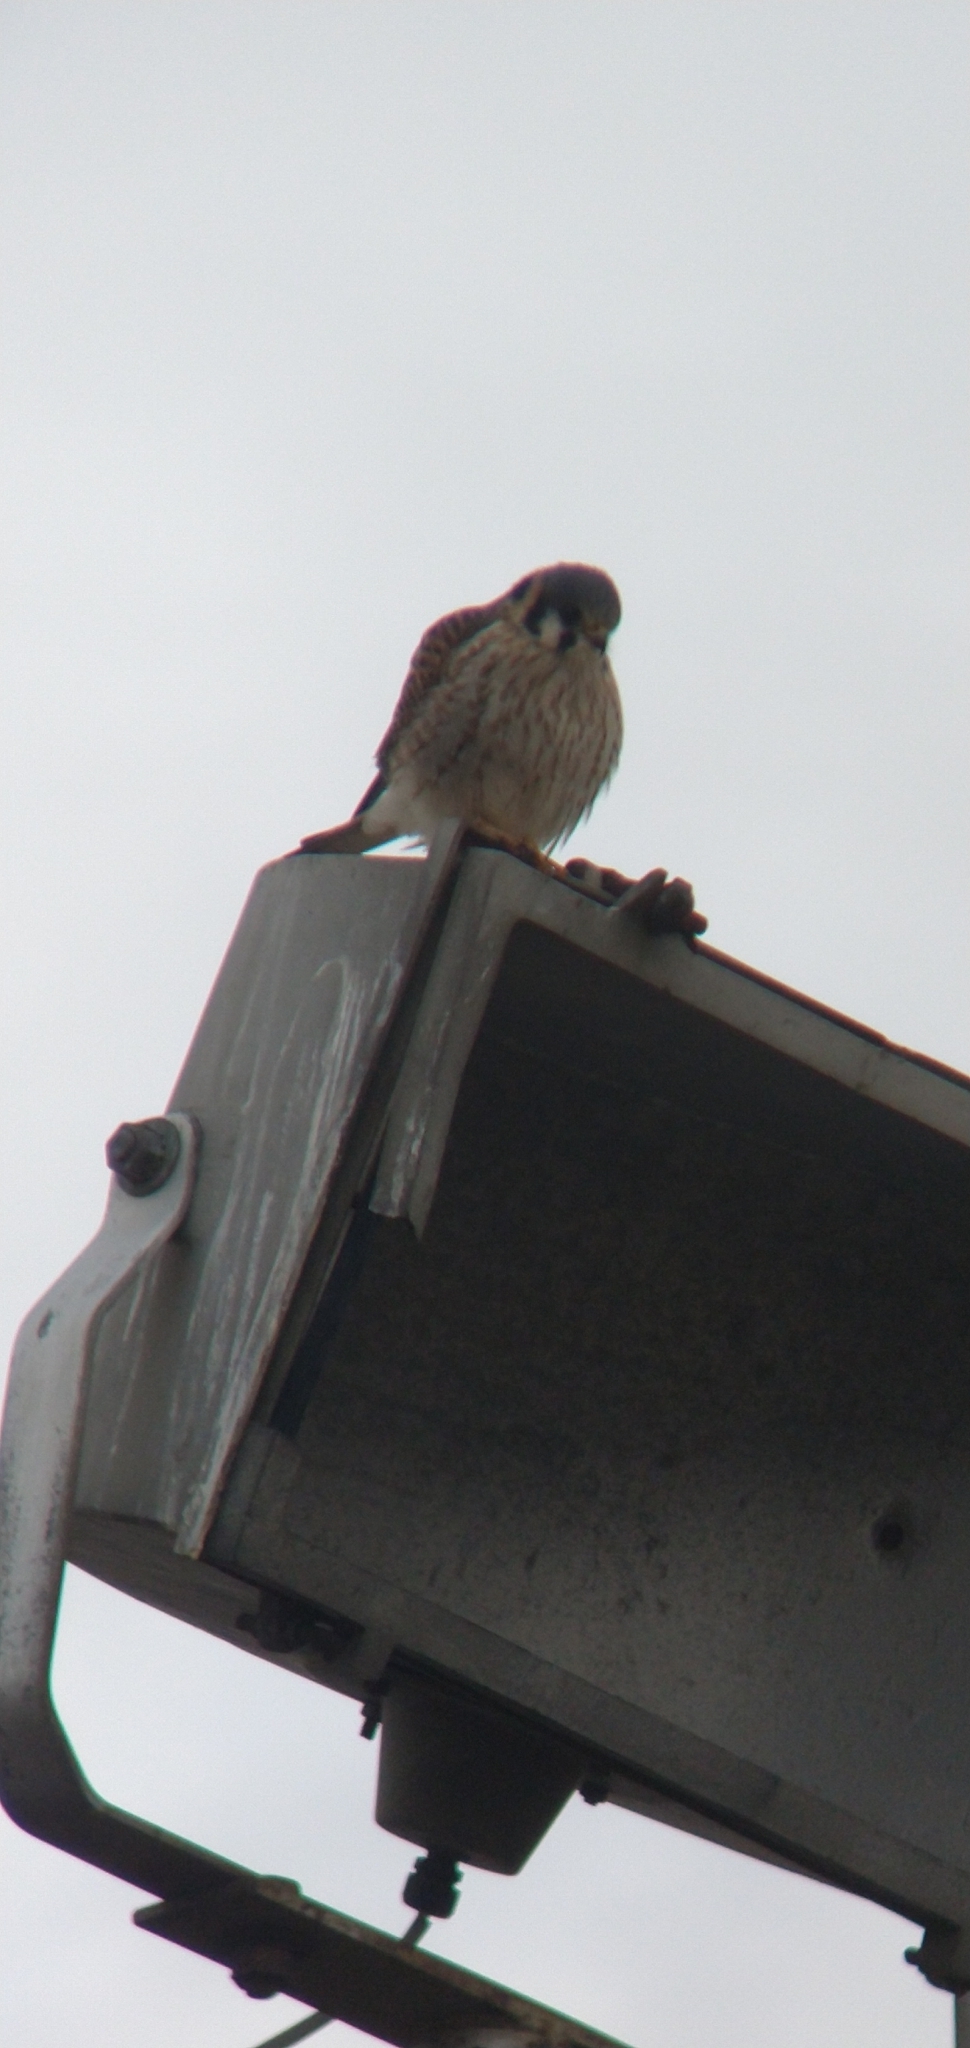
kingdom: Animalia
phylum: Chordata
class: Aves
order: Falconiformes
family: Falconidae
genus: Falco
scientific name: Falco sparverius
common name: American kestrel
